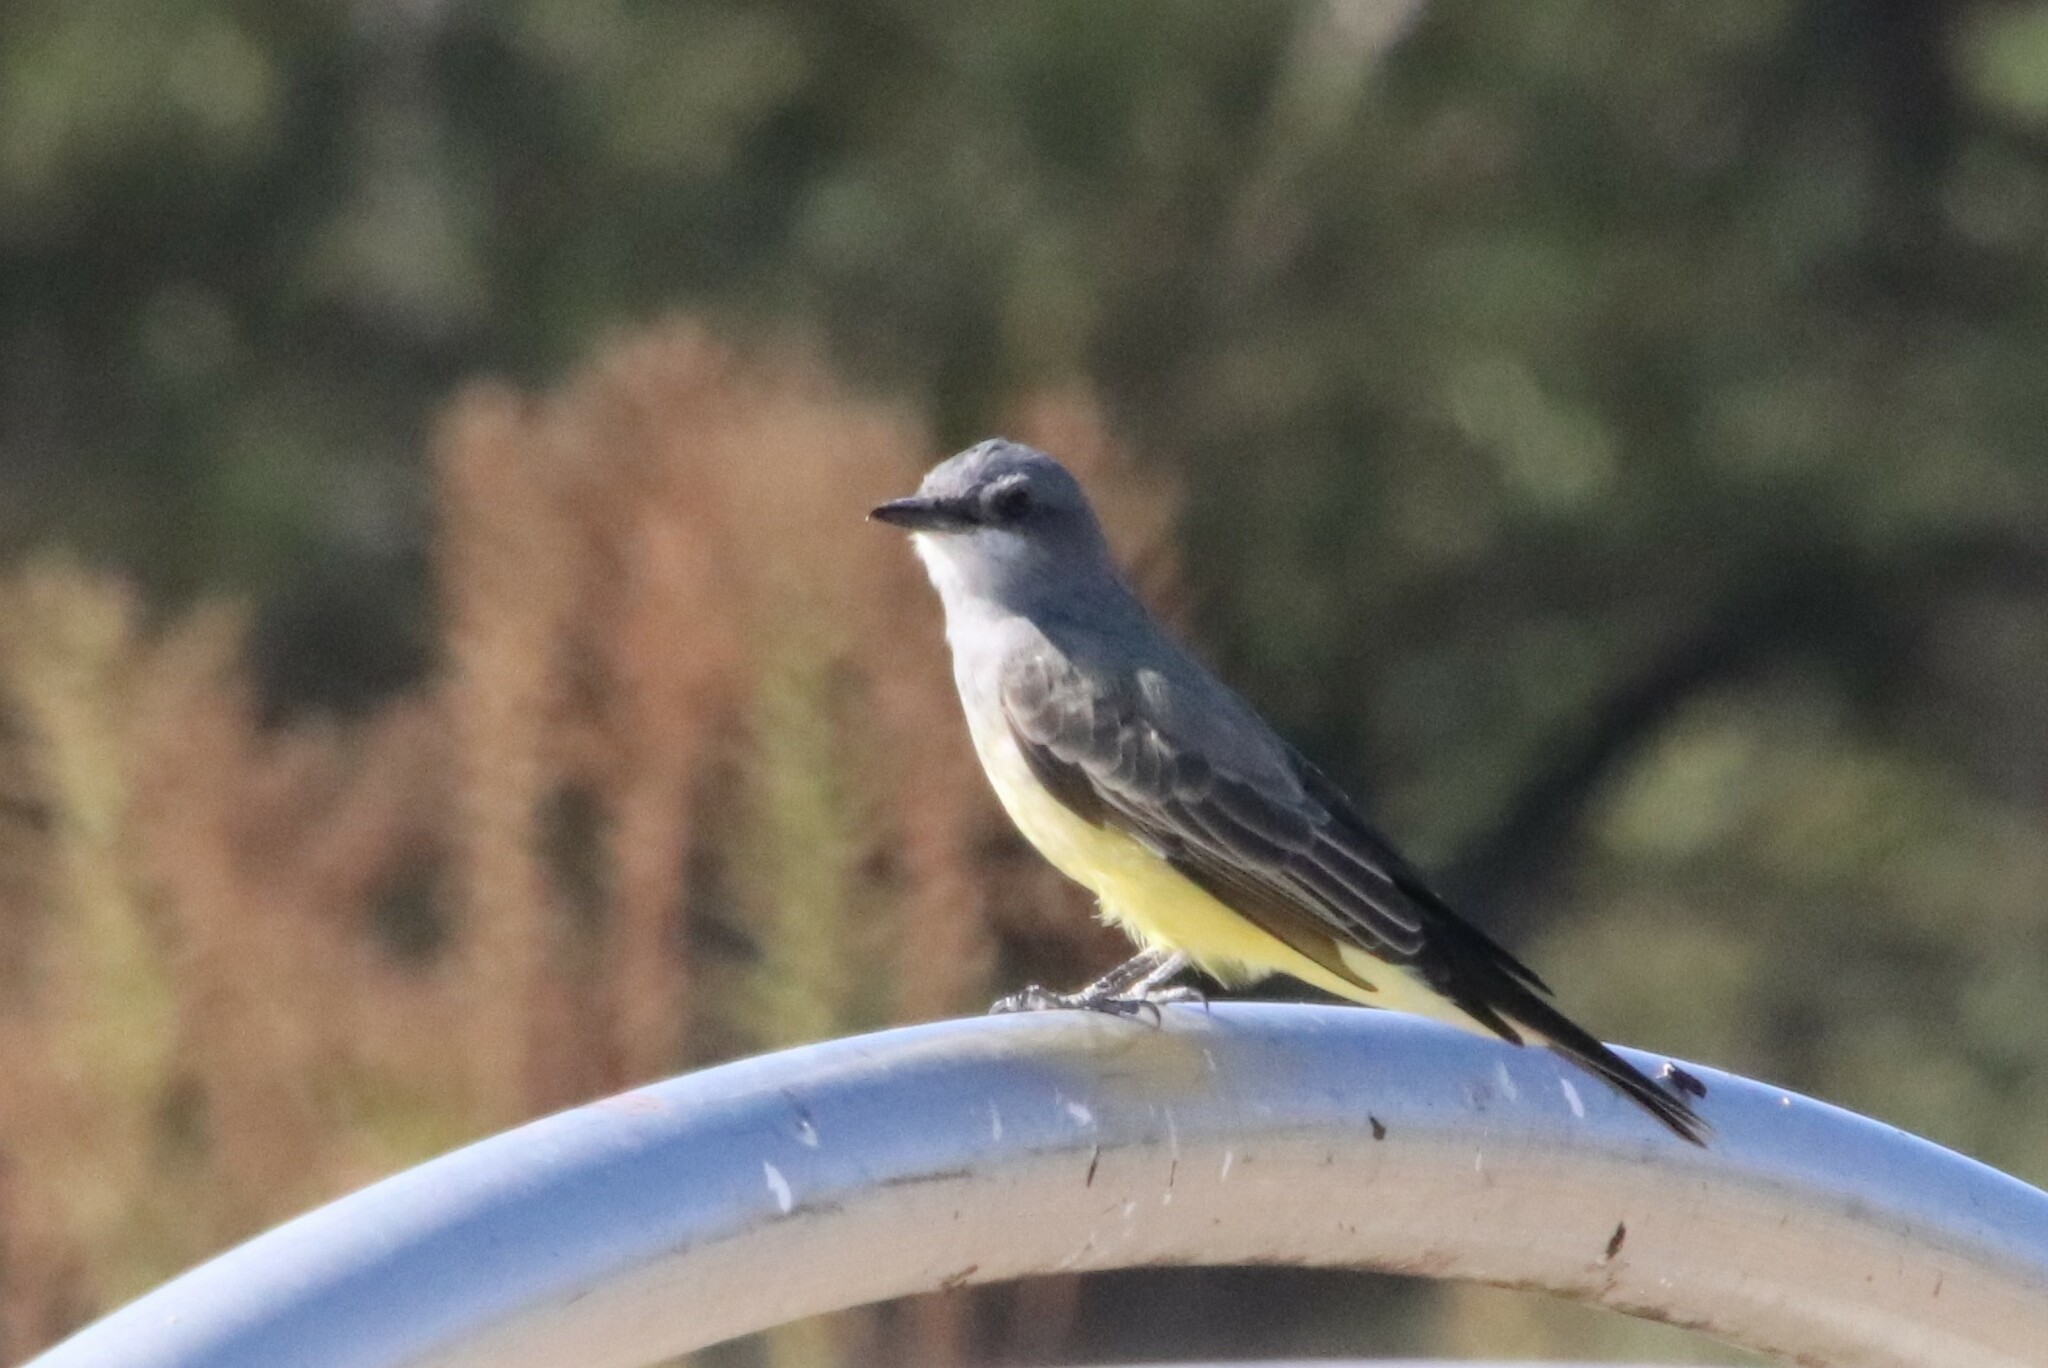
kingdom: Animalia
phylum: Chordata
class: Aves
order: Passeriformes
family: Tyrannidae
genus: Tyrannus
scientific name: Tyrannus vociferans
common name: Cassin's kingbird
